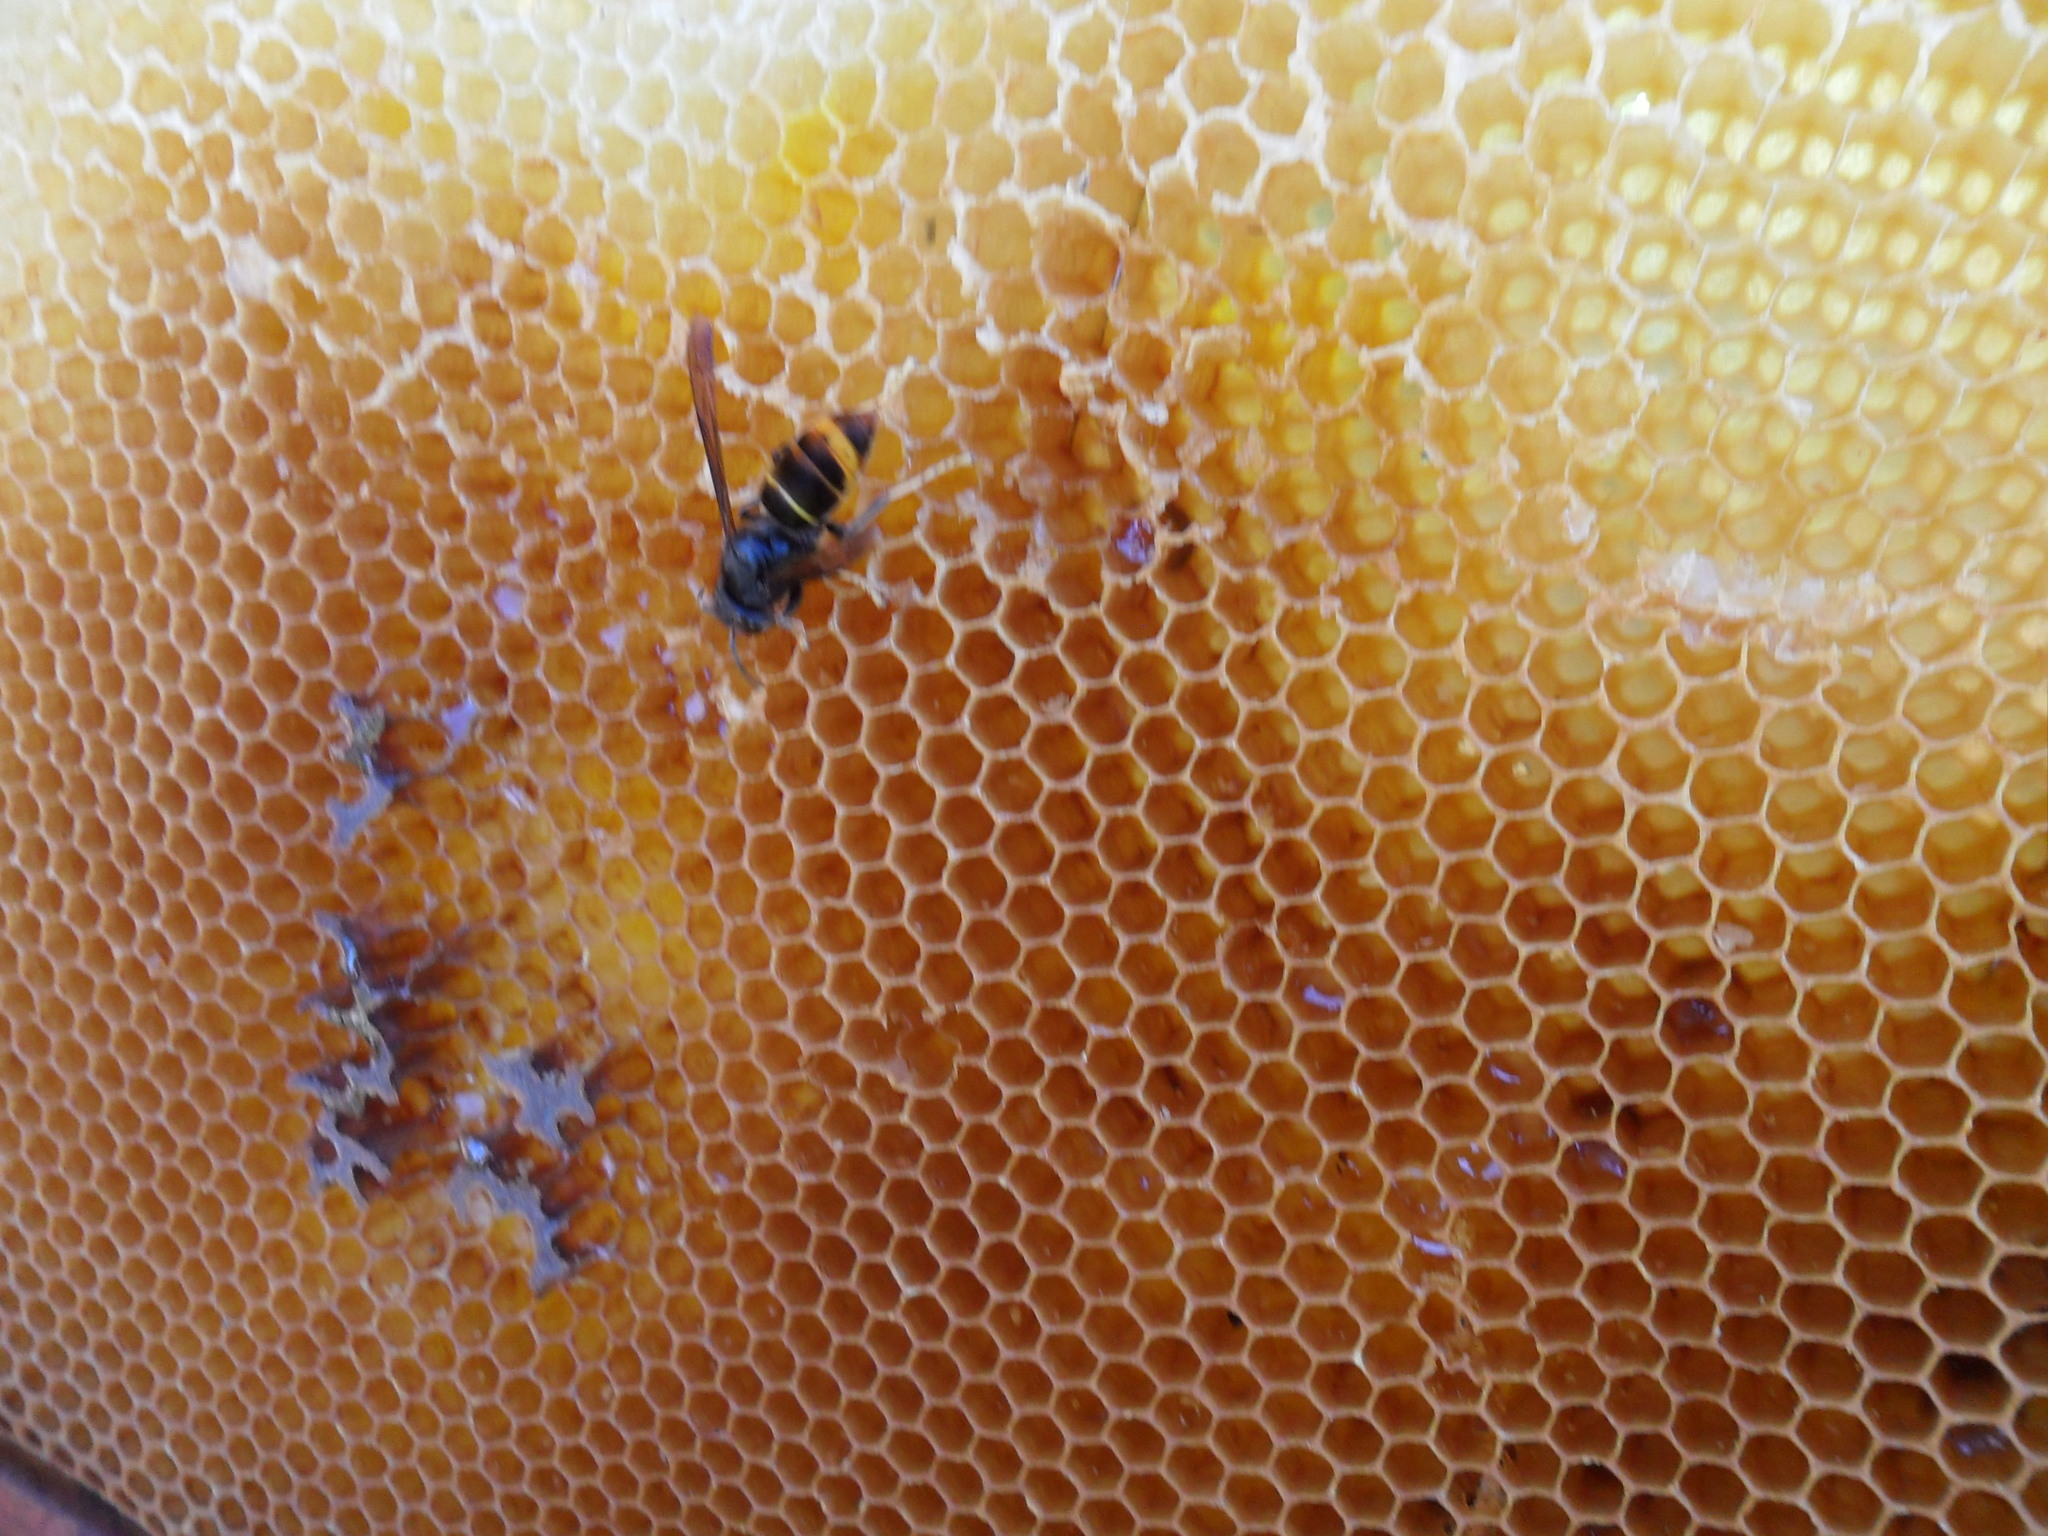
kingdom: Animalia
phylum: Arthropoda
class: Insecta
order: Hymenoptera
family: Vespidae
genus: Vespa
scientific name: Vespa velutina
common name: Asian hornet
